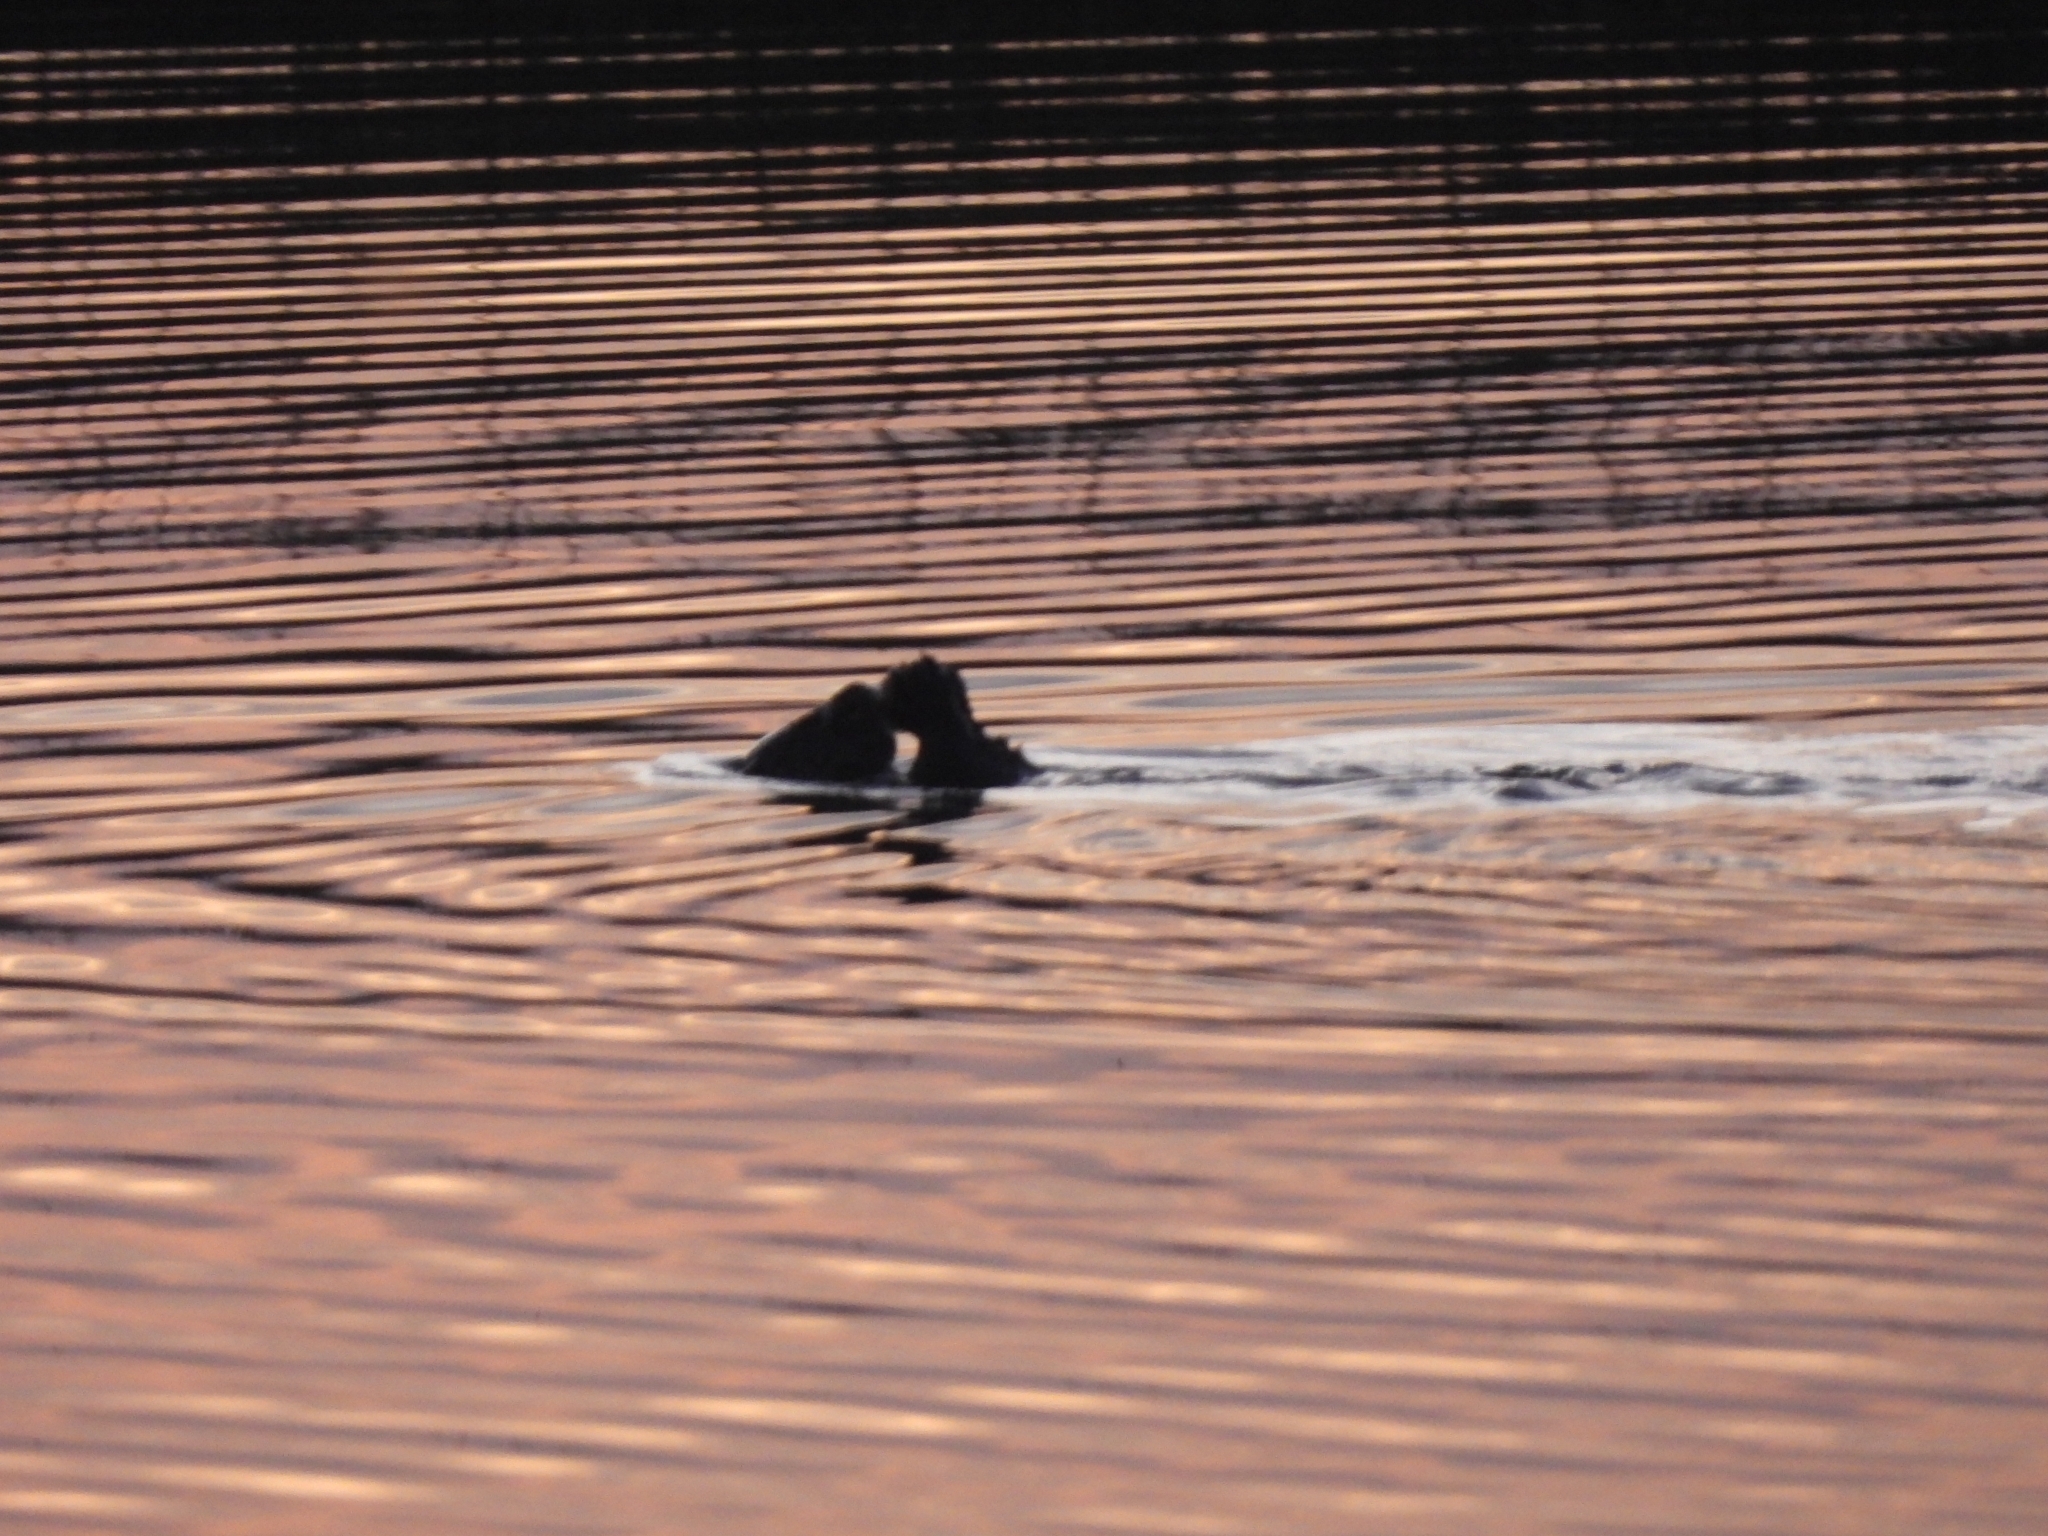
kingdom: Animalia
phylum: Chordata
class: Mammalia
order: Carnivora
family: Mustelidae
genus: Lontra
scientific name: Lontra longicaudis
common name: Neotropical otter
